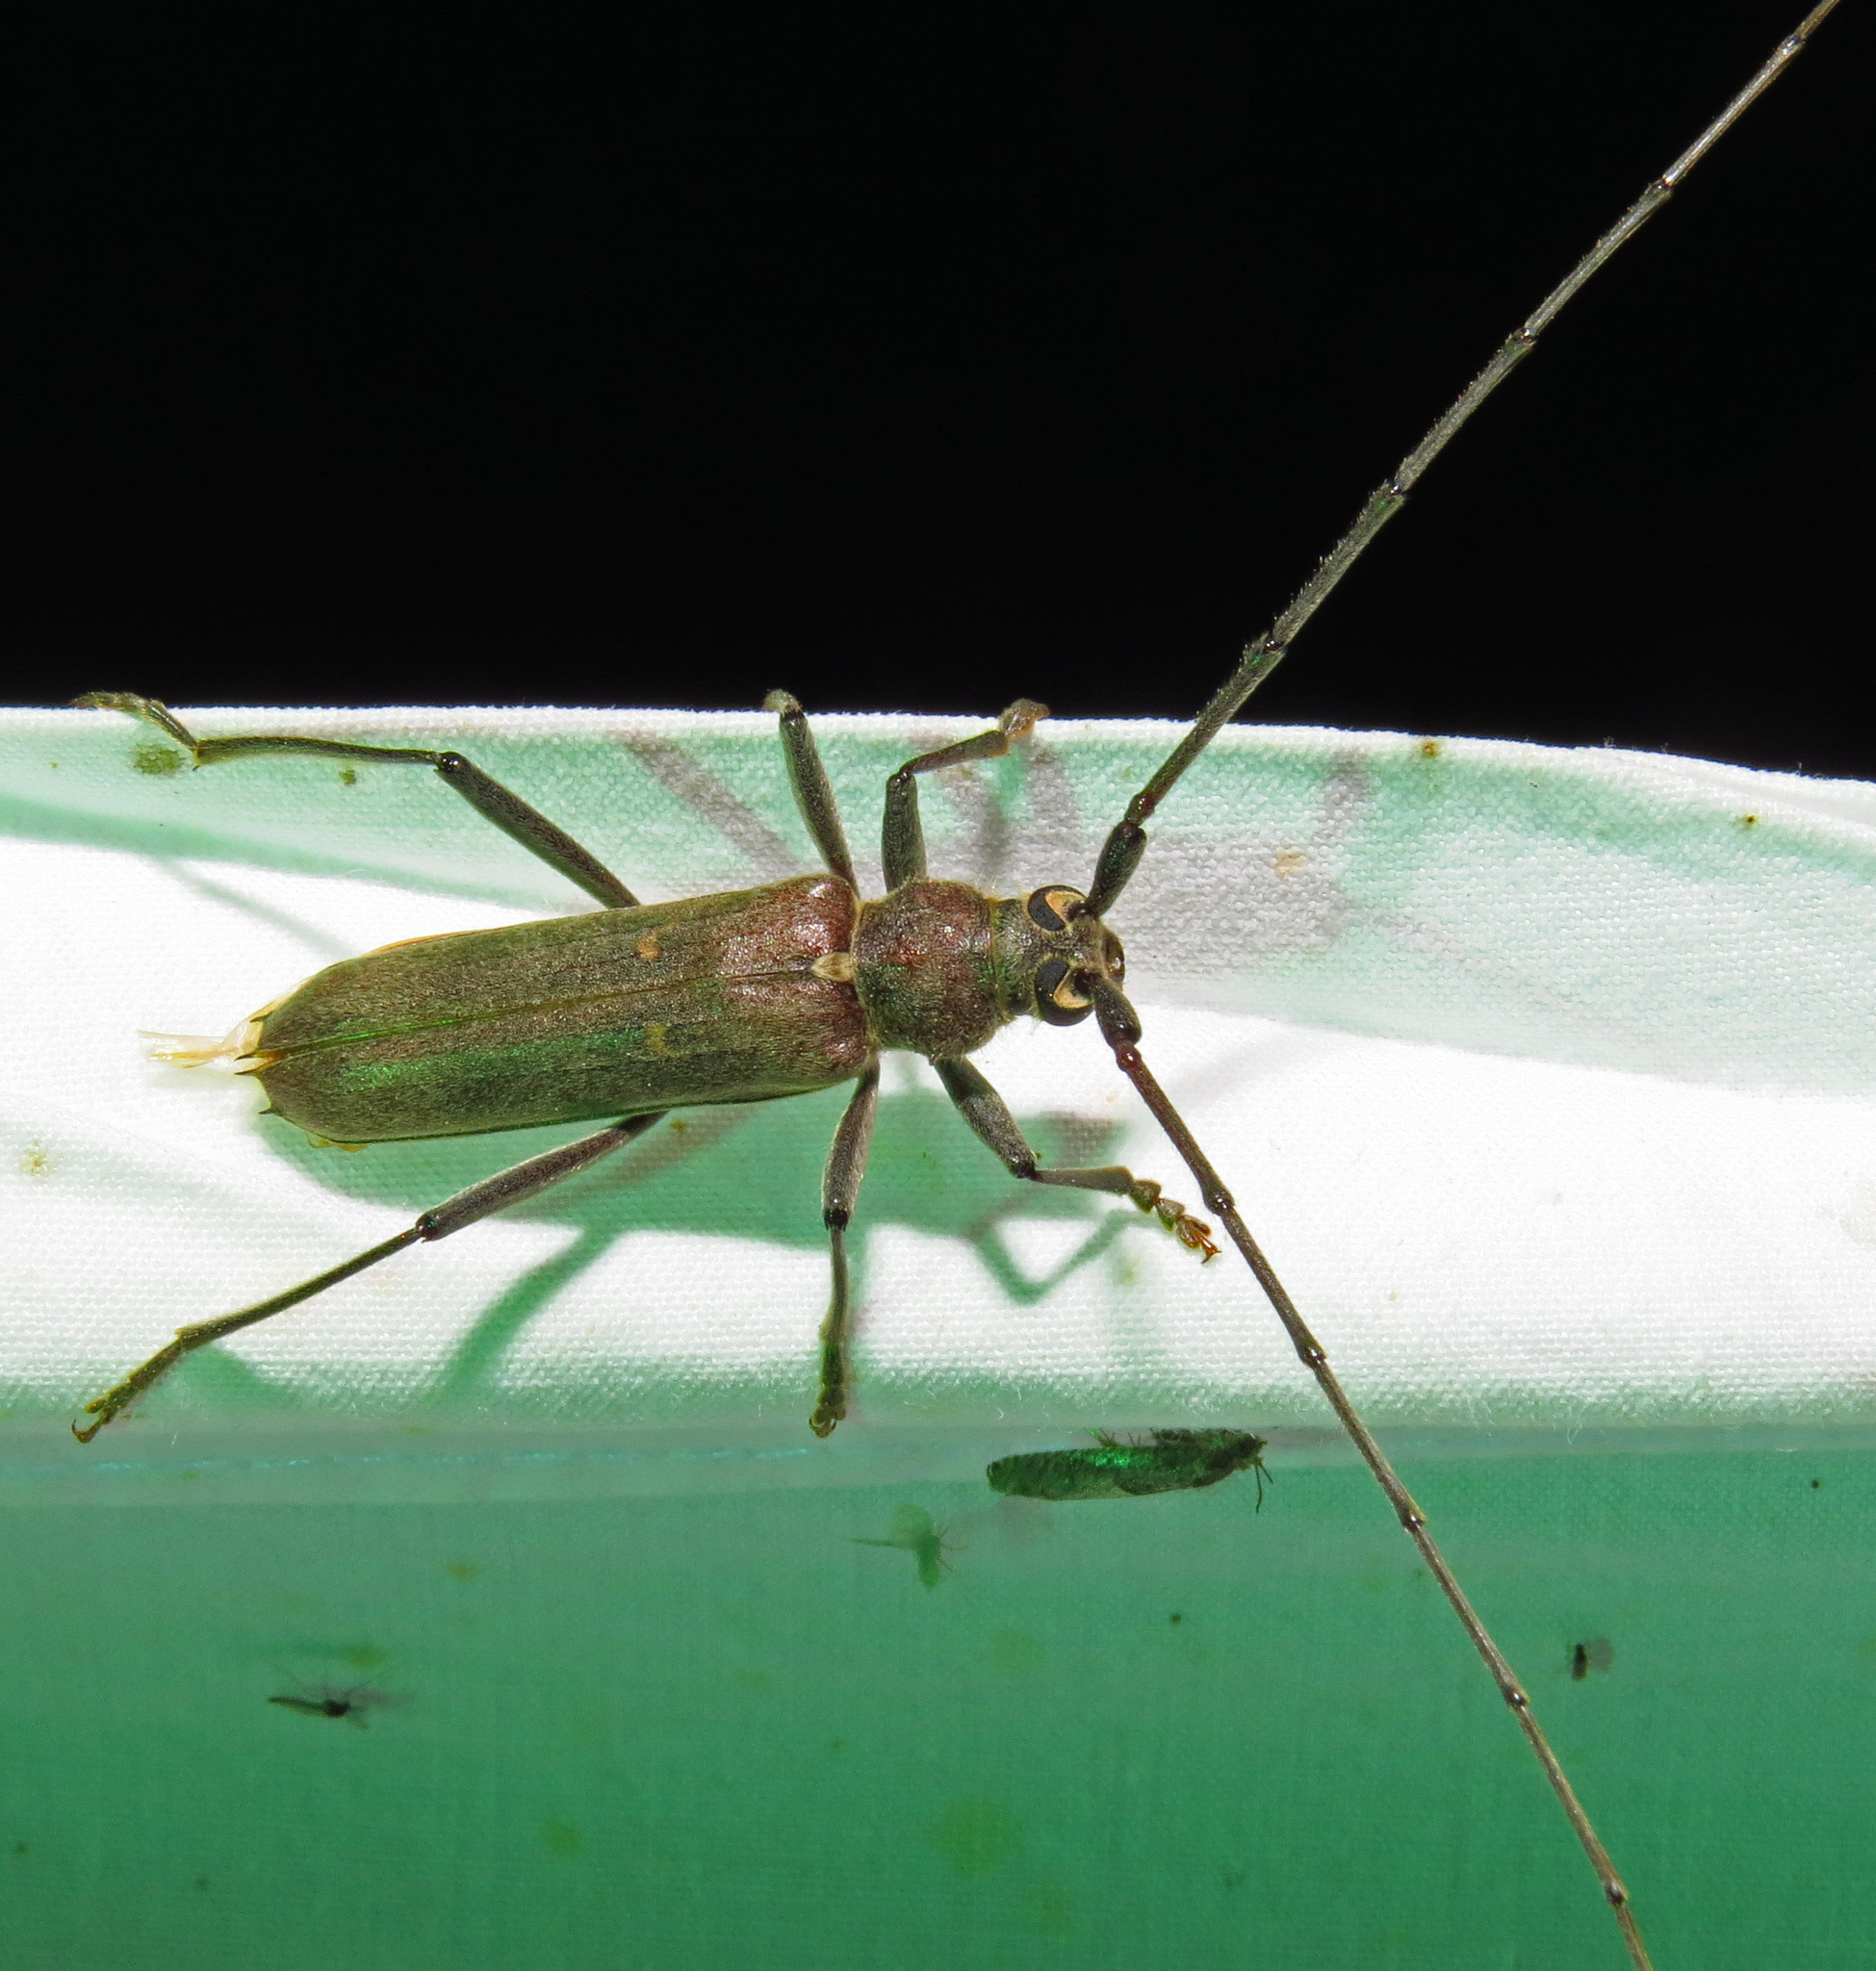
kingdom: Animalia
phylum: Arthropoda
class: Insecta
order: Coleoptera
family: Cerambycidae
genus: Knulliana
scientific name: Knulliana cincta
